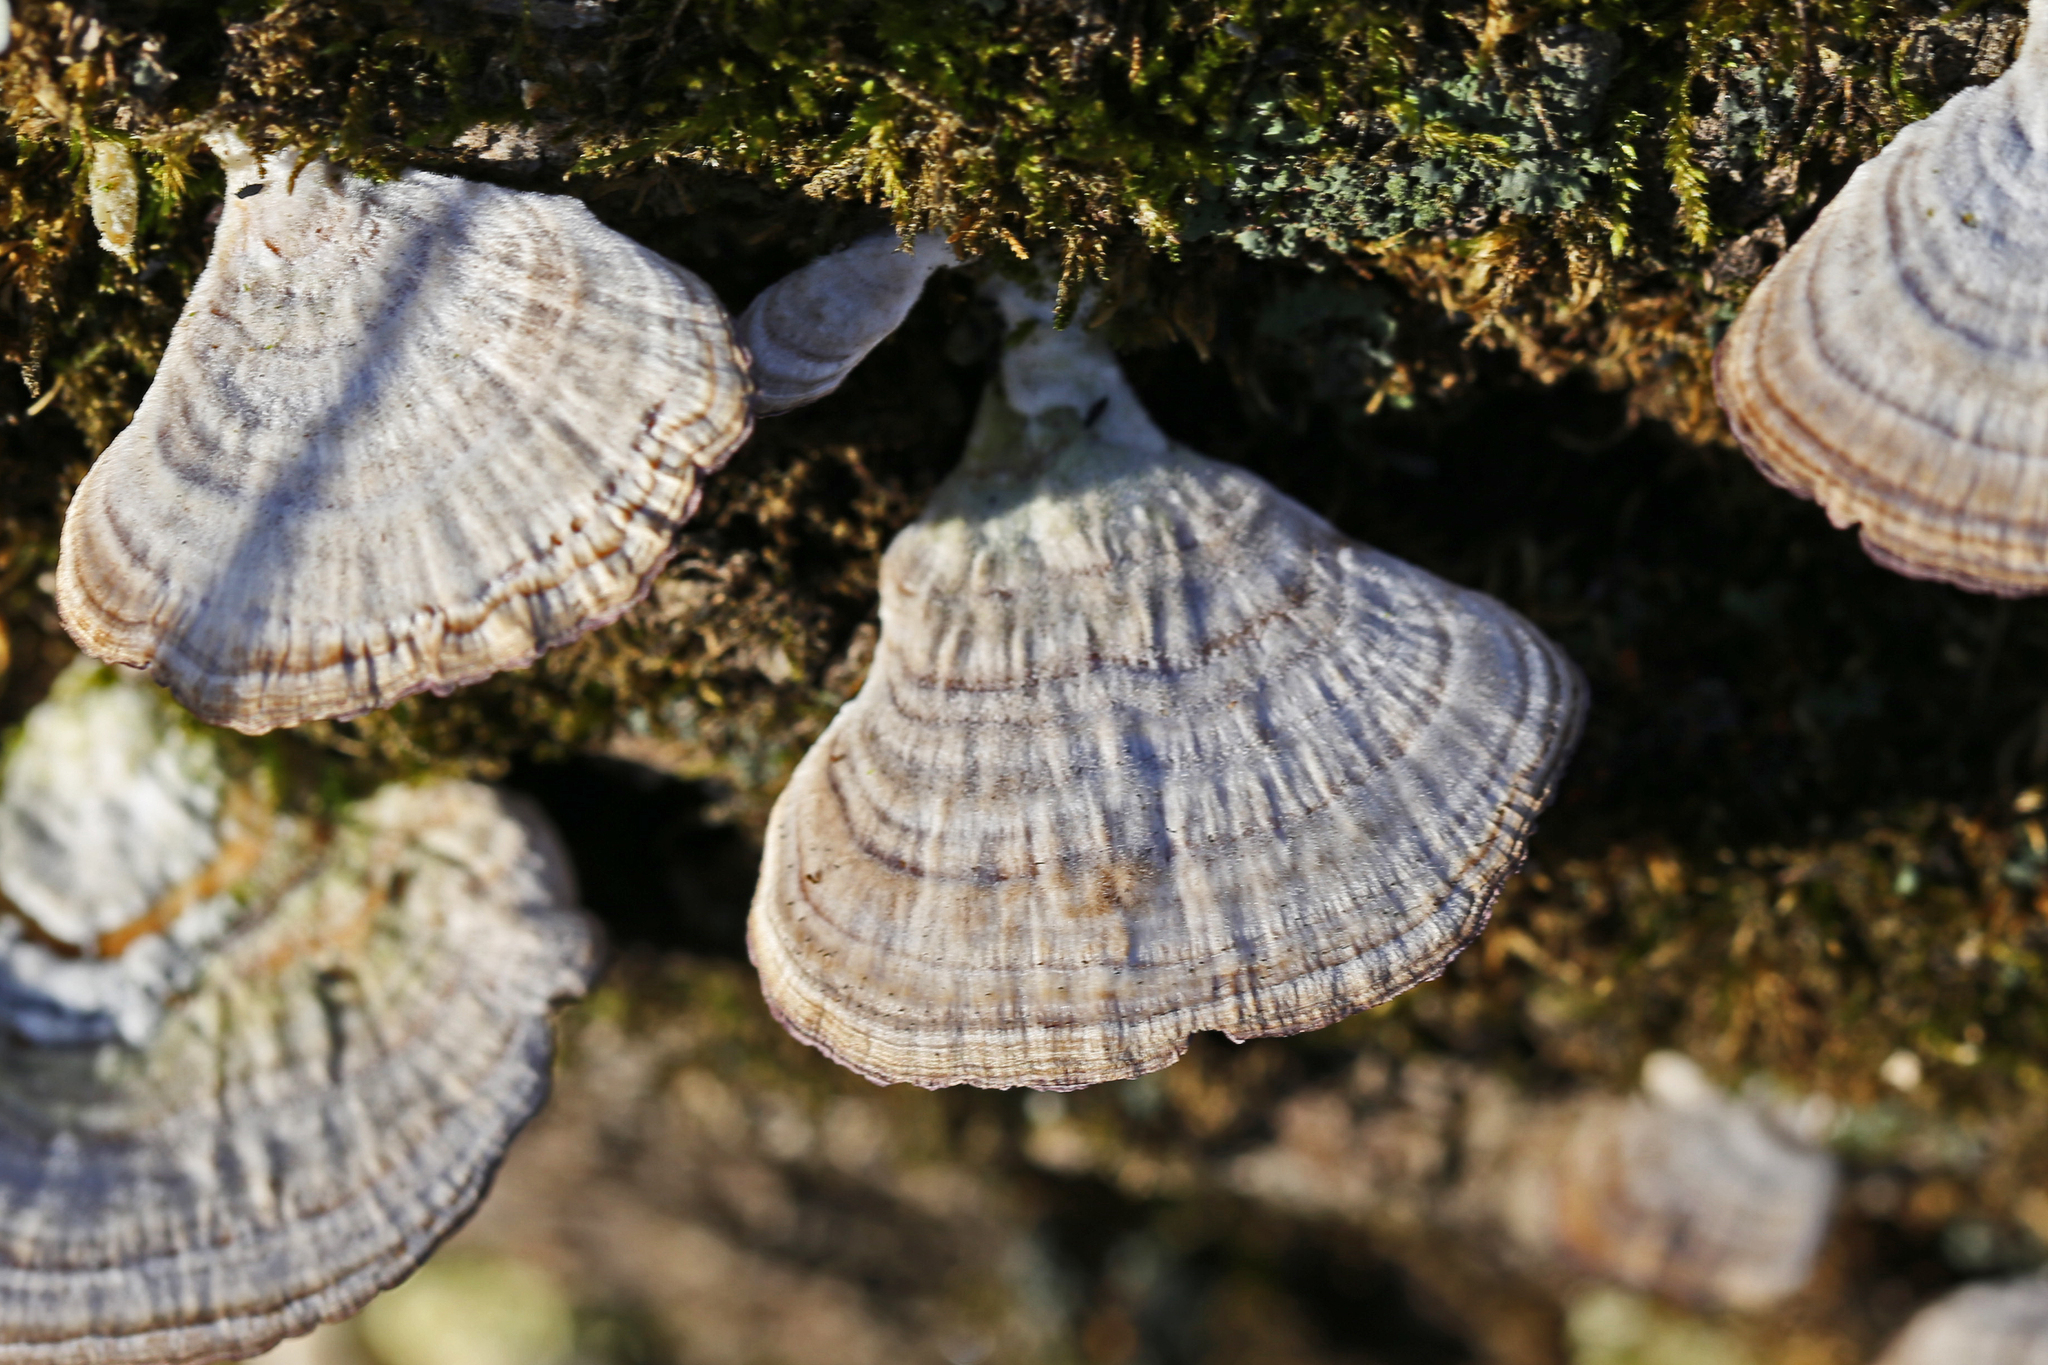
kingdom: Fungi
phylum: Basidiomycota
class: Agaricomycetes
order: Hymenochaetales
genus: Trichaptum
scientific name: Trichaptum biforme
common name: Violet-toothed polypore
